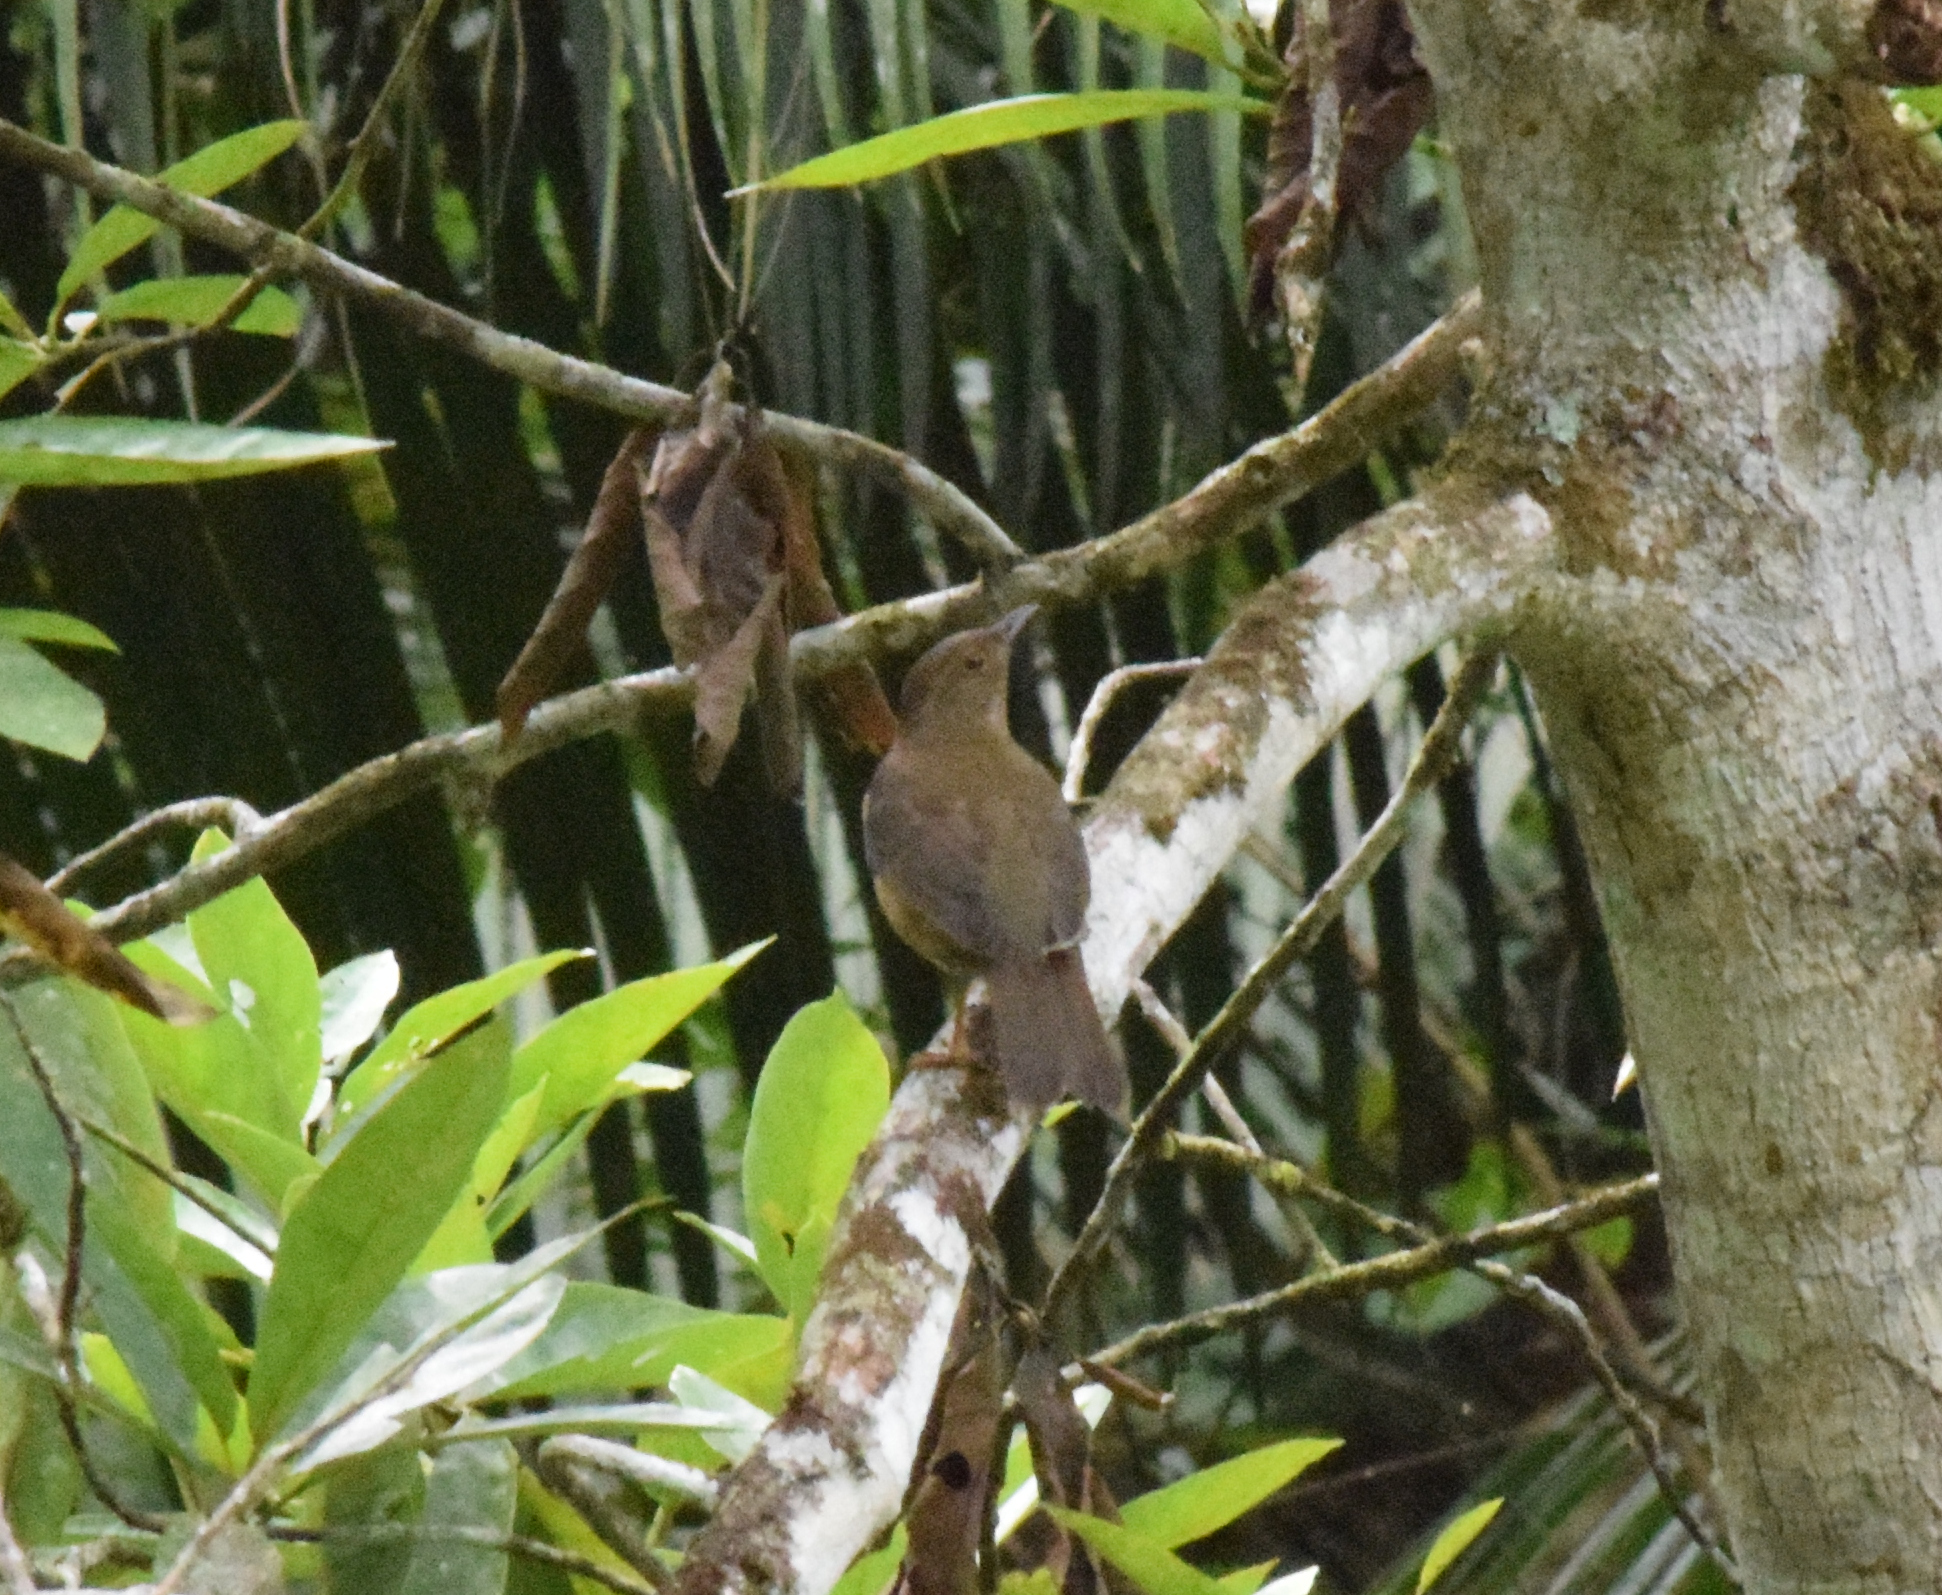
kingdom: Animalia
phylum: Chordata
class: Aves
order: Passeriformes
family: Turdidae
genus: Turdus
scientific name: Turdus flavipes
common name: Yellow-legged thrush
